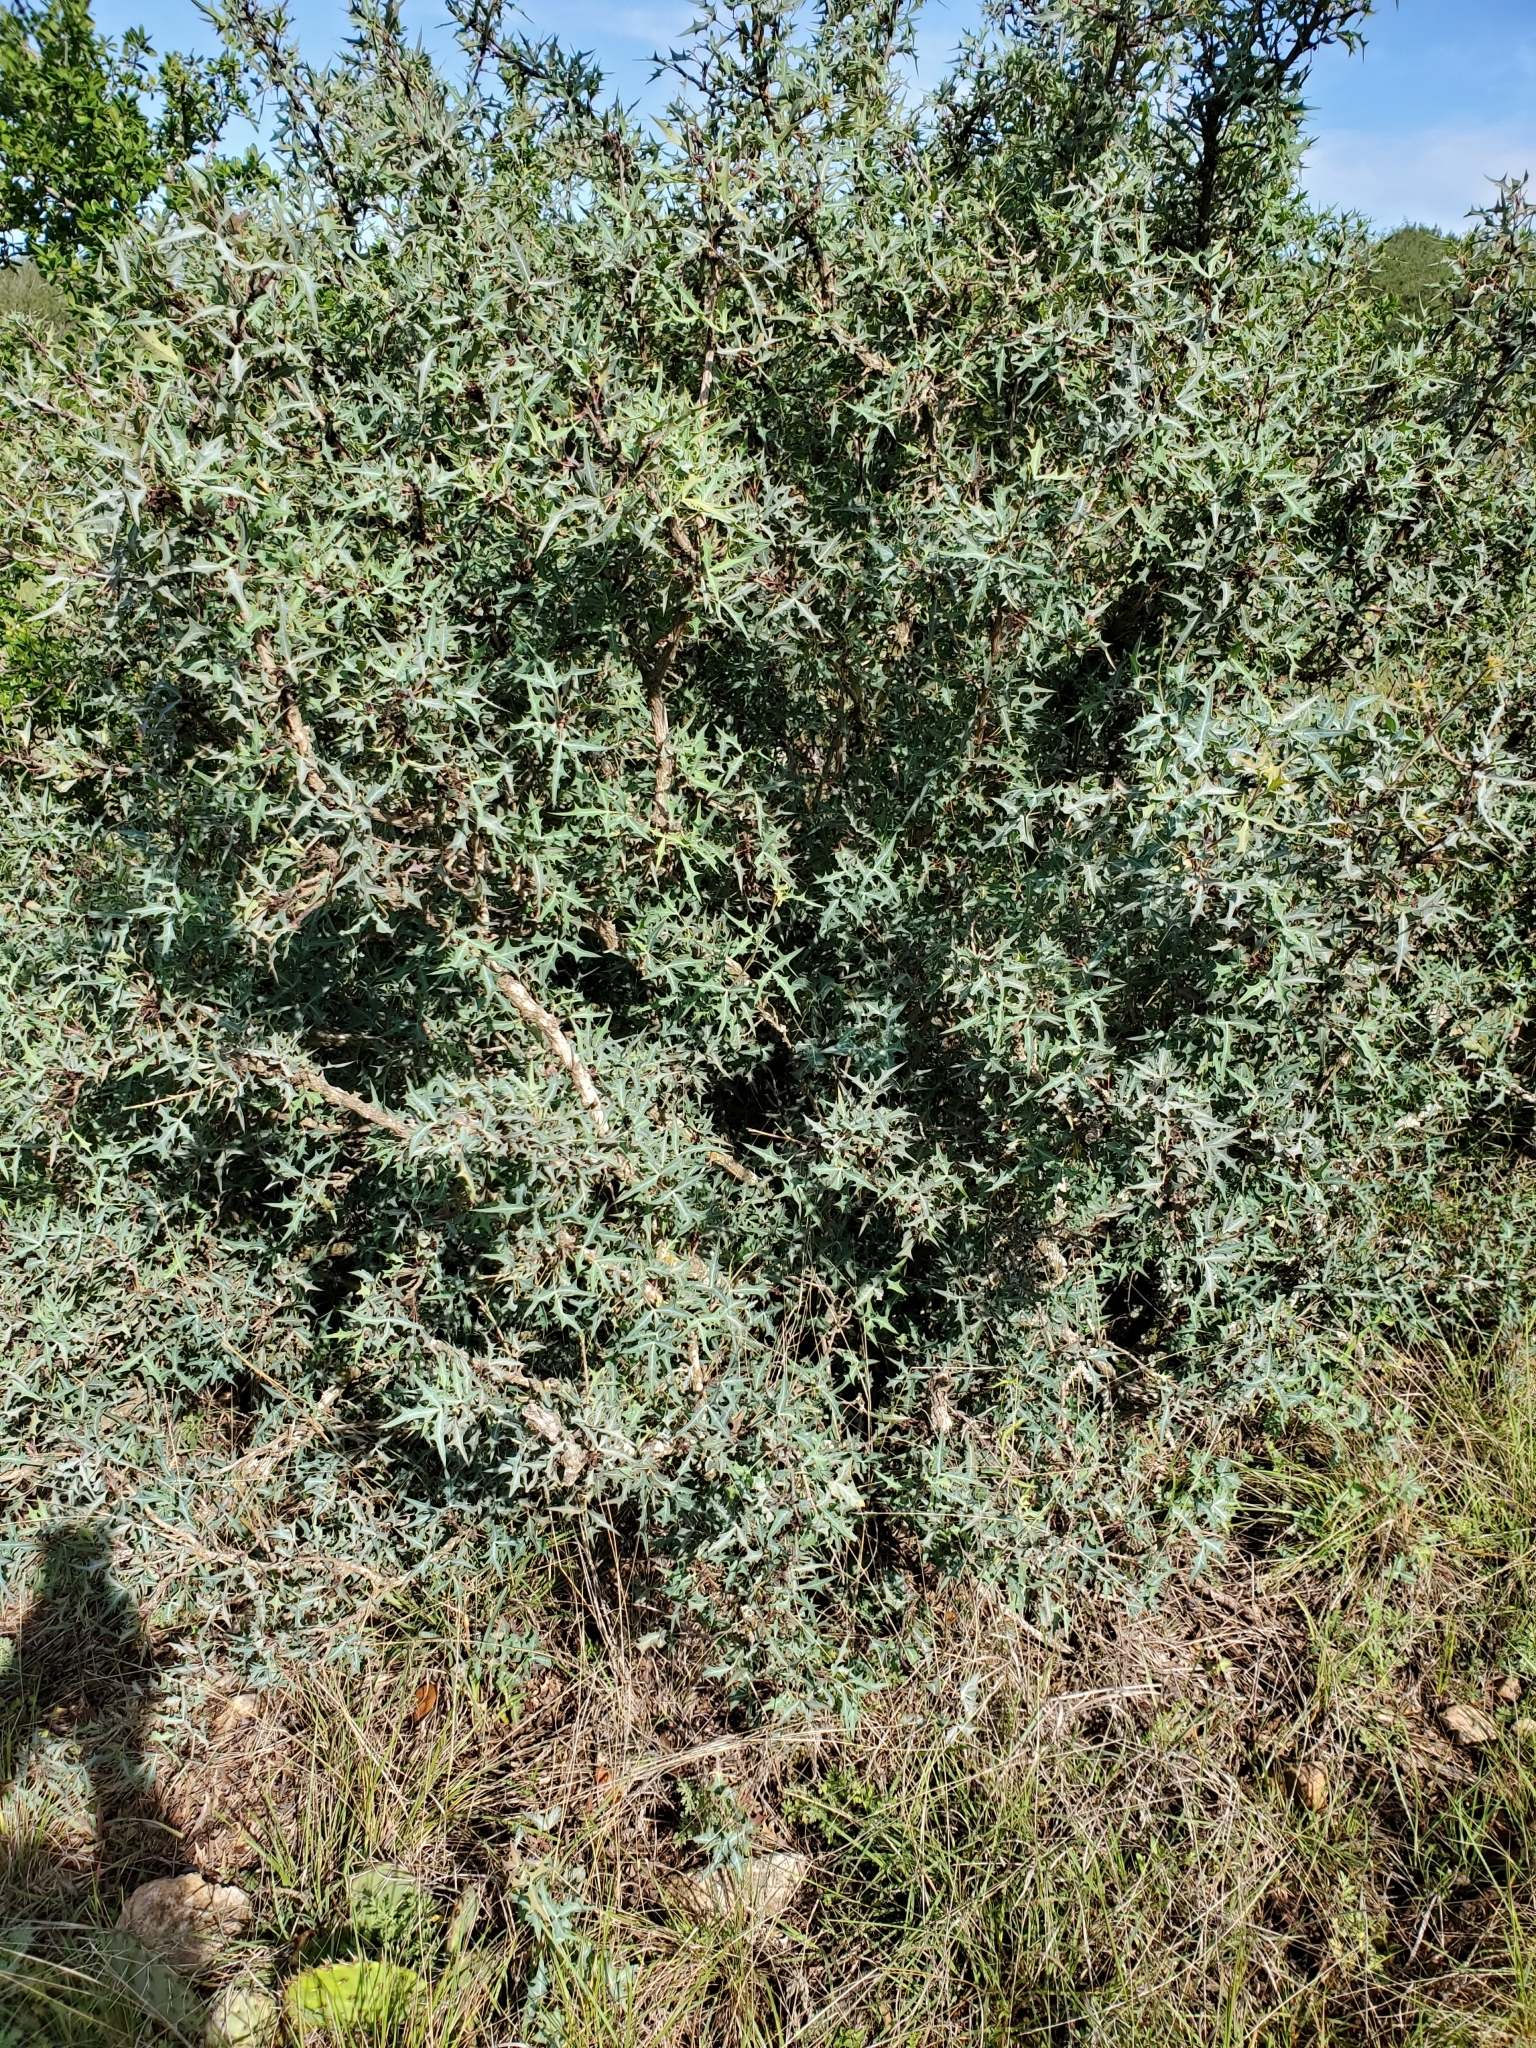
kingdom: Plantae
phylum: Tracheophyta
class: Magnoliopsida
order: Ranunculales
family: Berberidaceae
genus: Alloberberis
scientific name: Alloberberis trifoliolata
